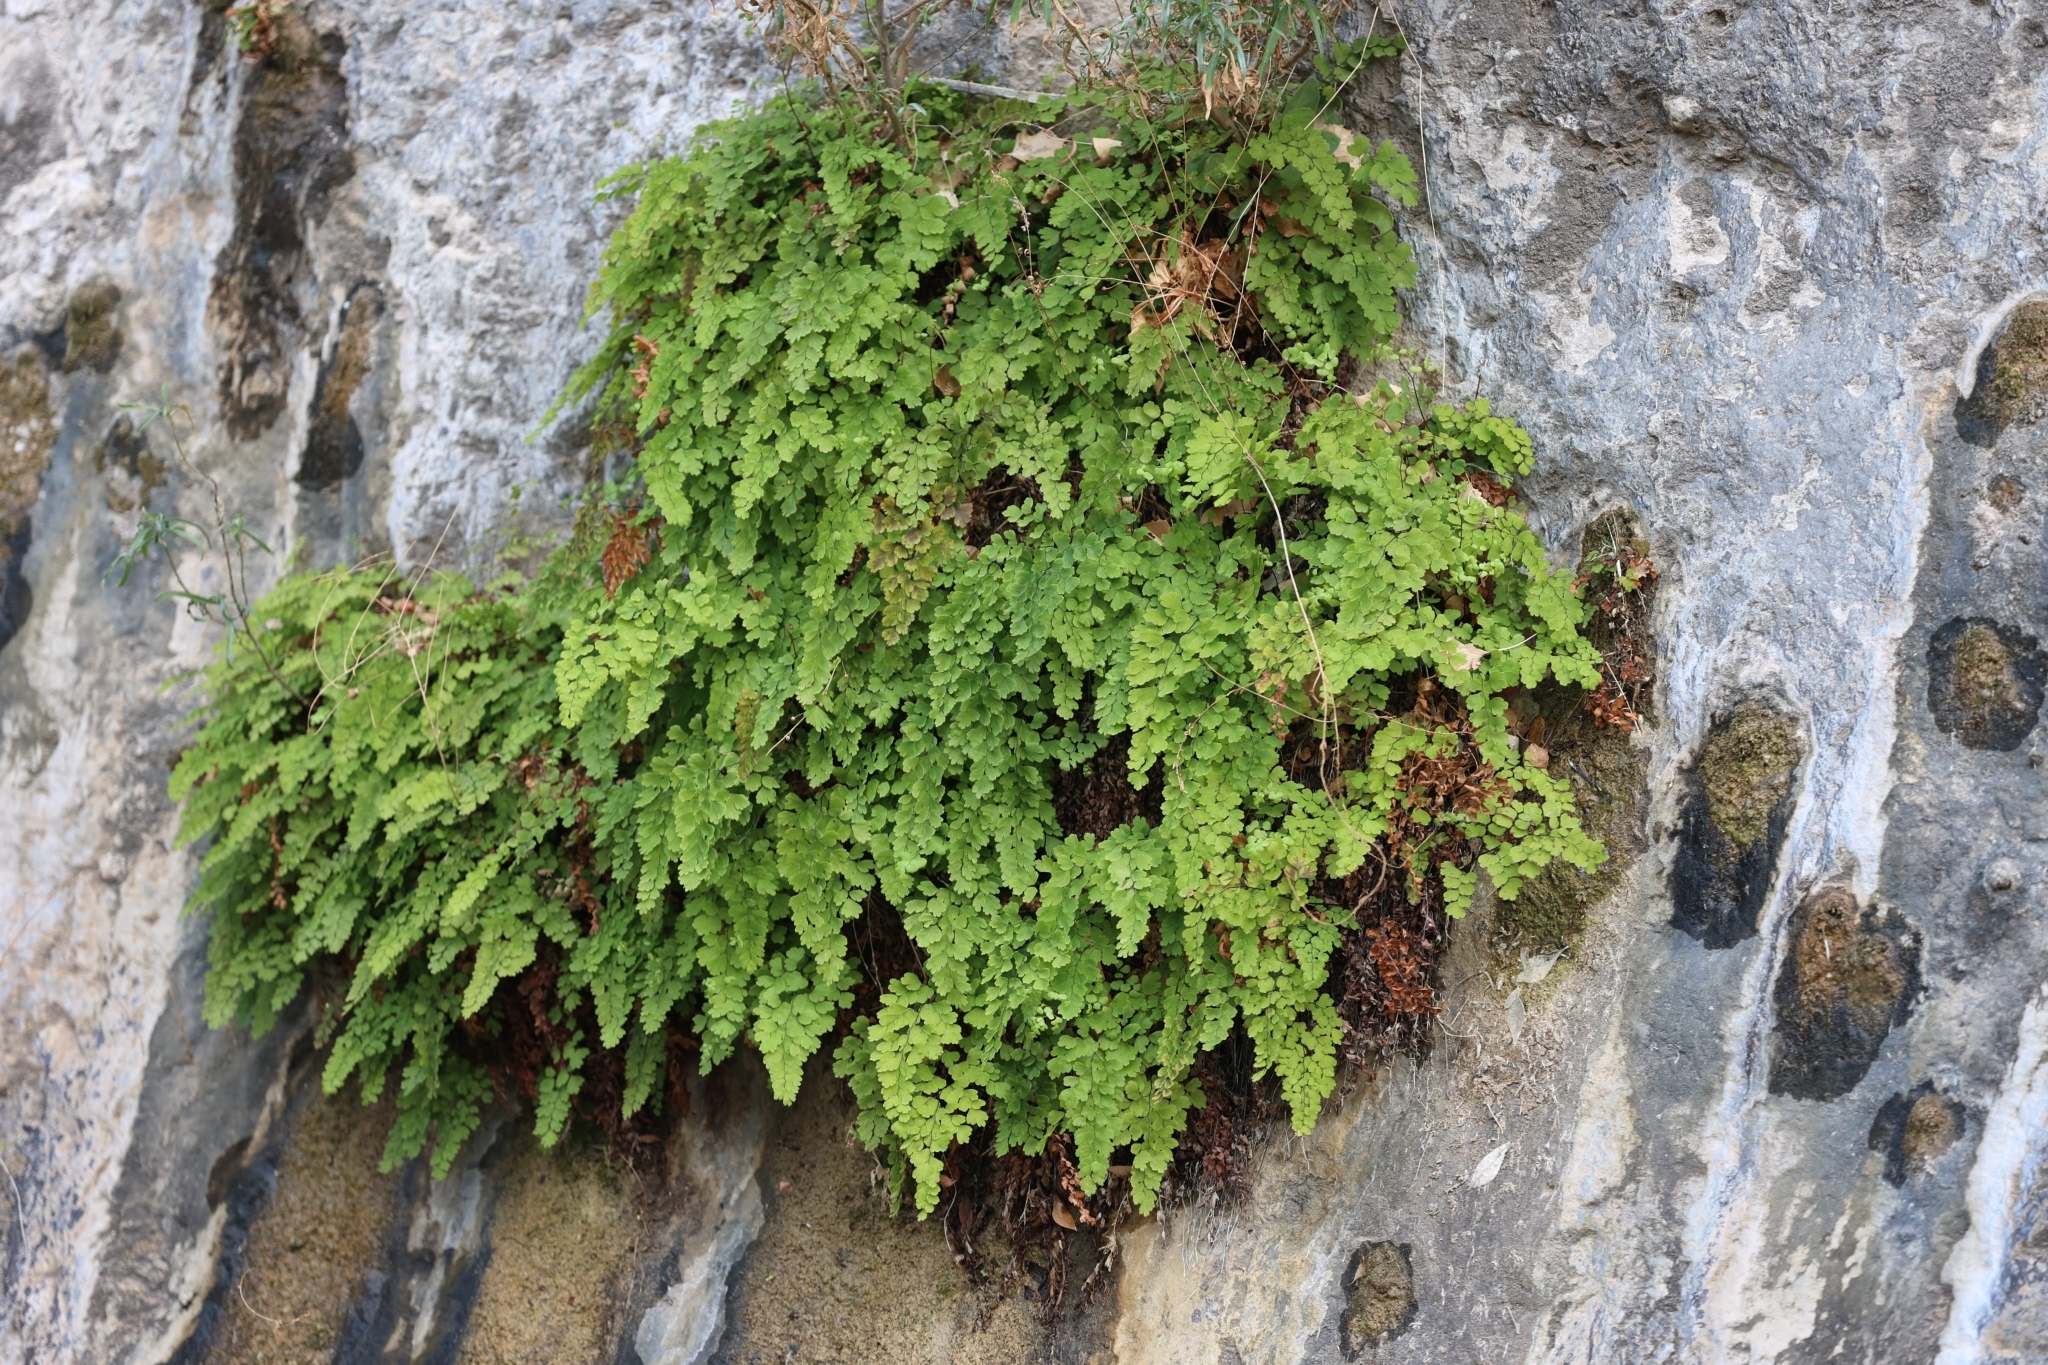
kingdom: Plantae
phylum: Tracheophyta
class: Polypodiopsida
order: Polypodiales
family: Pteridaceae
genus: Adiantum
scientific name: Adiantum capillus-veneris
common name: Maidenhair fern
